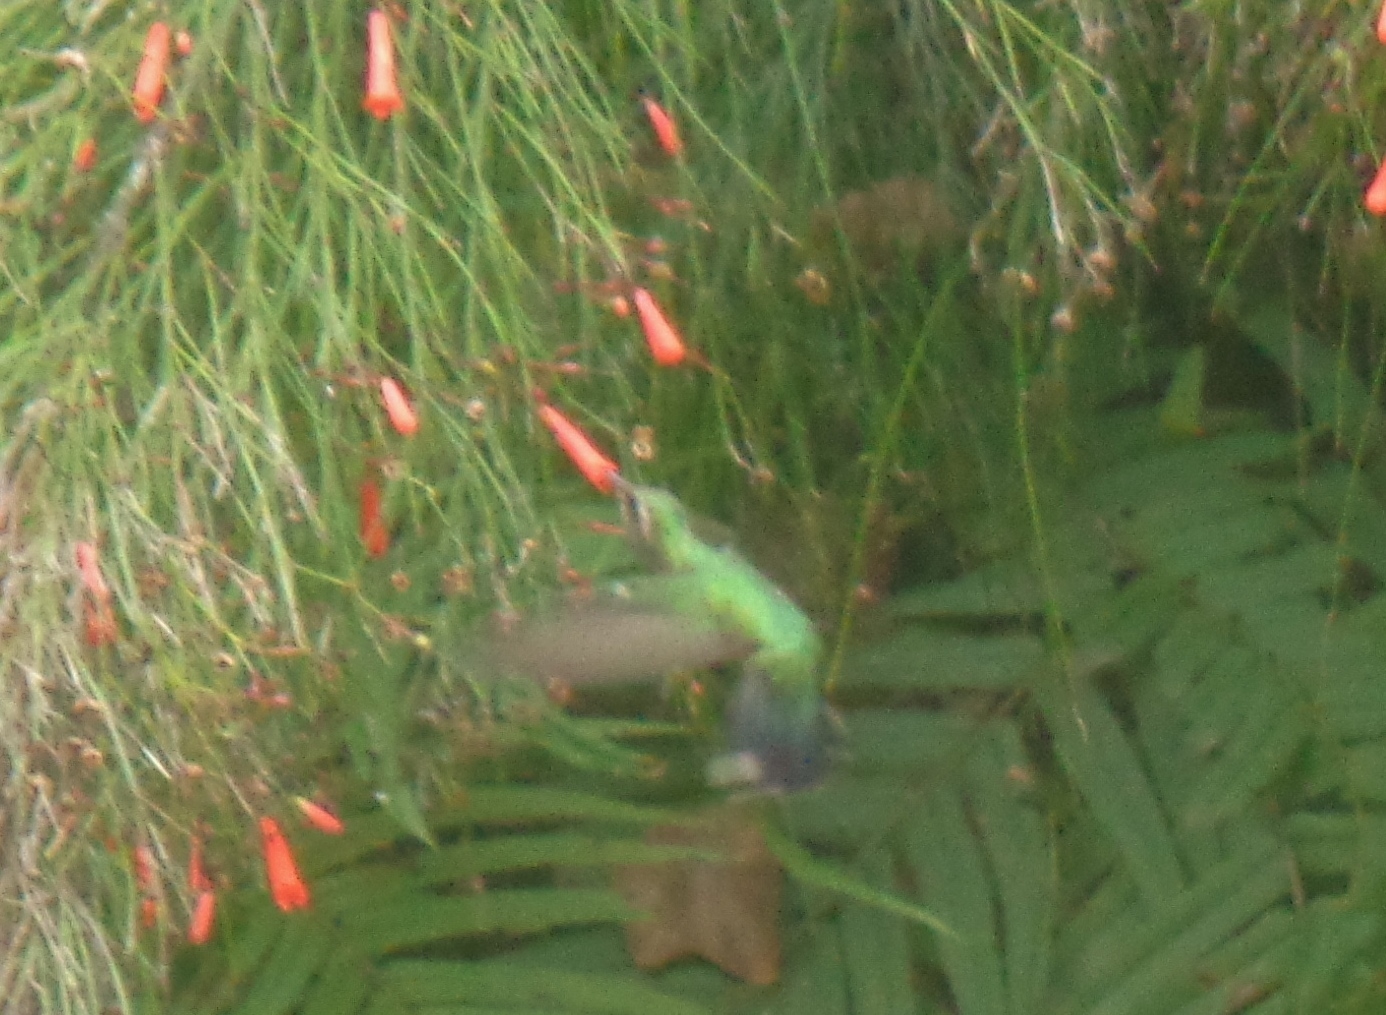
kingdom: Animalia
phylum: Chordata
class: Aves
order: Apodiformes
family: Trochilidae
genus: Cynanthus
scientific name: Cynanthus latirostris
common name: Broad-billed hummingbird
